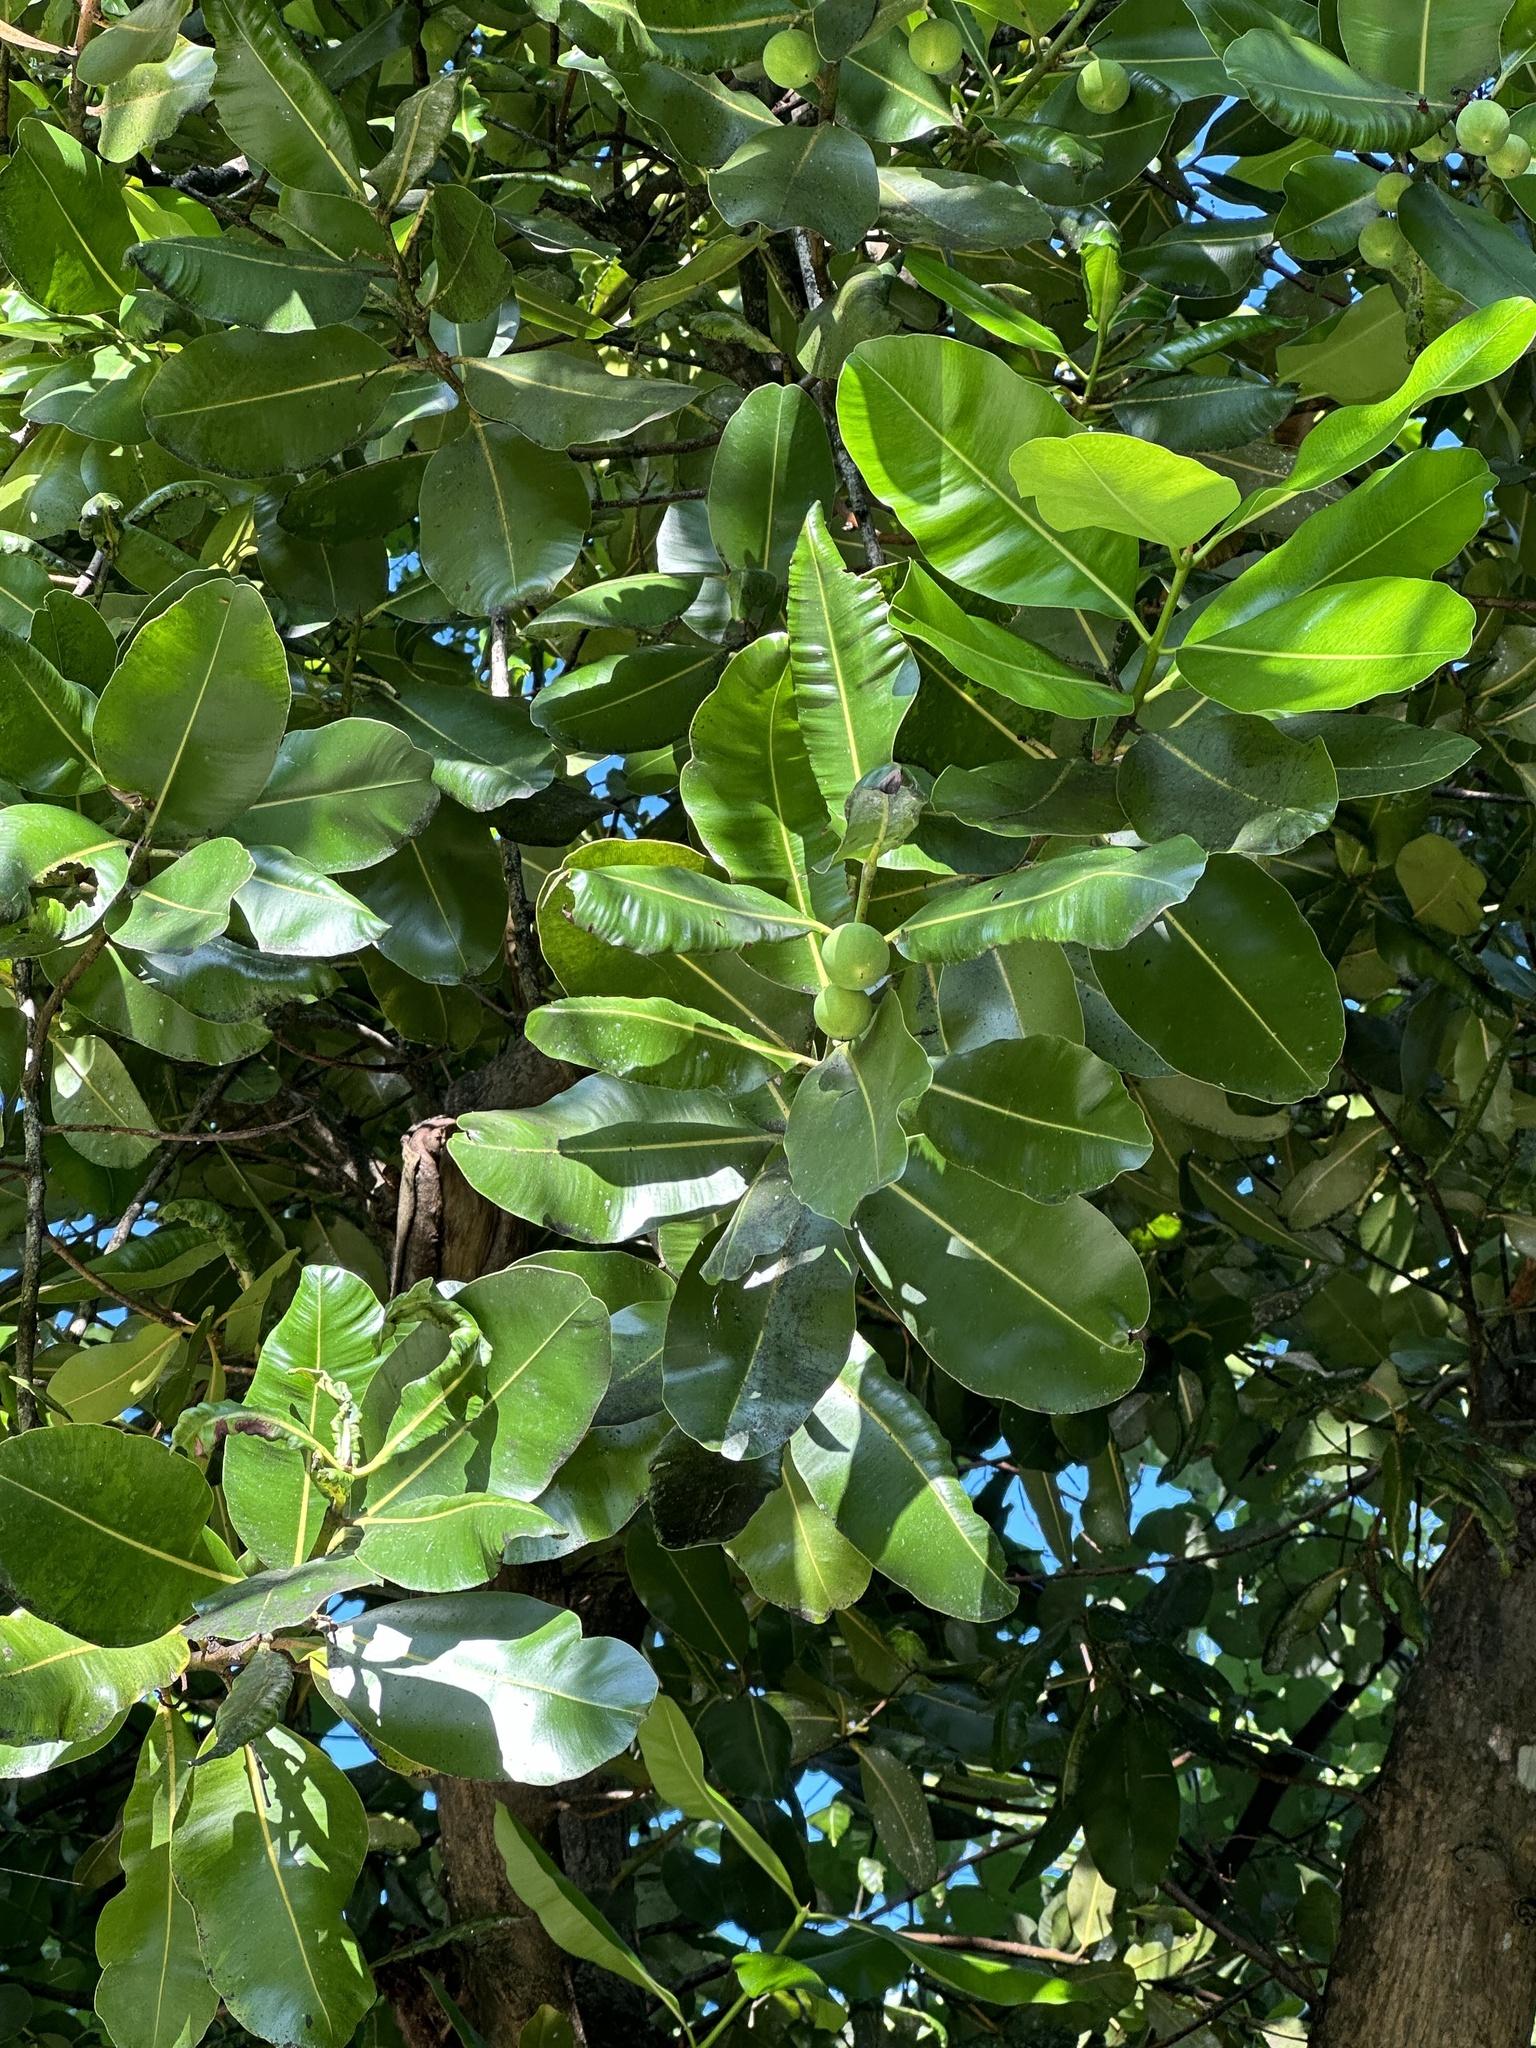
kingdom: Plantae
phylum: Tracheophyta
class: Magnoliopsida
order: Malpighiales
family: Calophyllaceae
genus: Calophyllum
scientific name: Calophyllum inophyllum
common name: Alexandrian laurel
